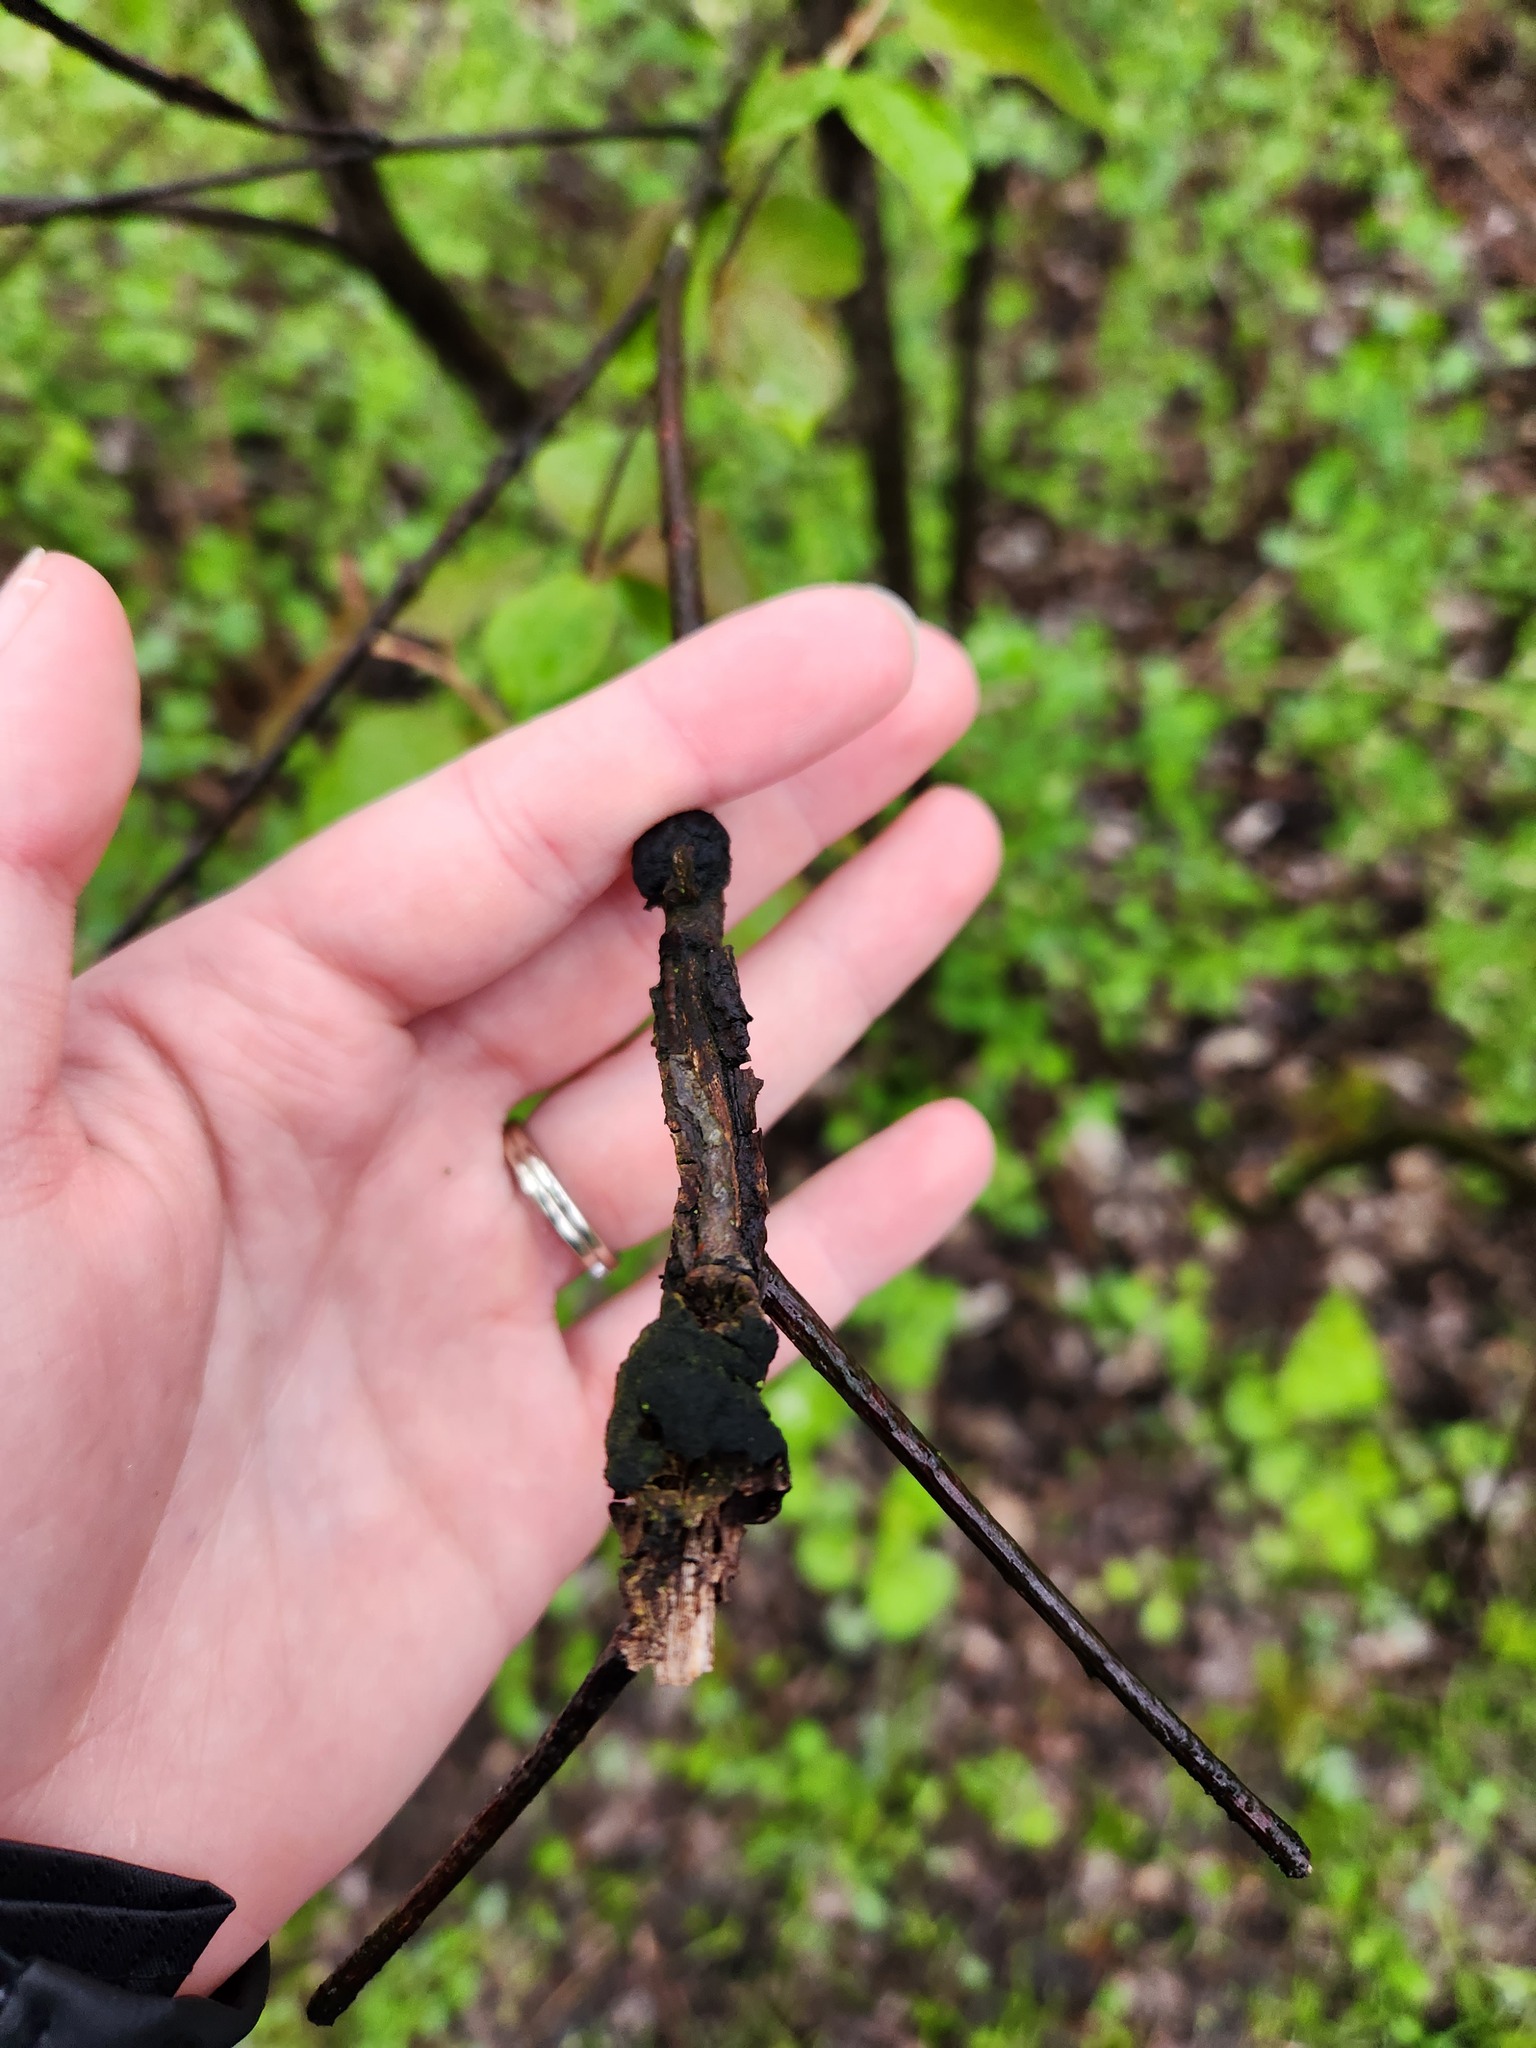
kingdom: Fungi
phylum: Ascomycota
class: Dothideomycetes
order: Venturiales
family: Venturiaceae
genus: Apiosporina
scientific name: Apiosporina morbosa
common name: Black knot
